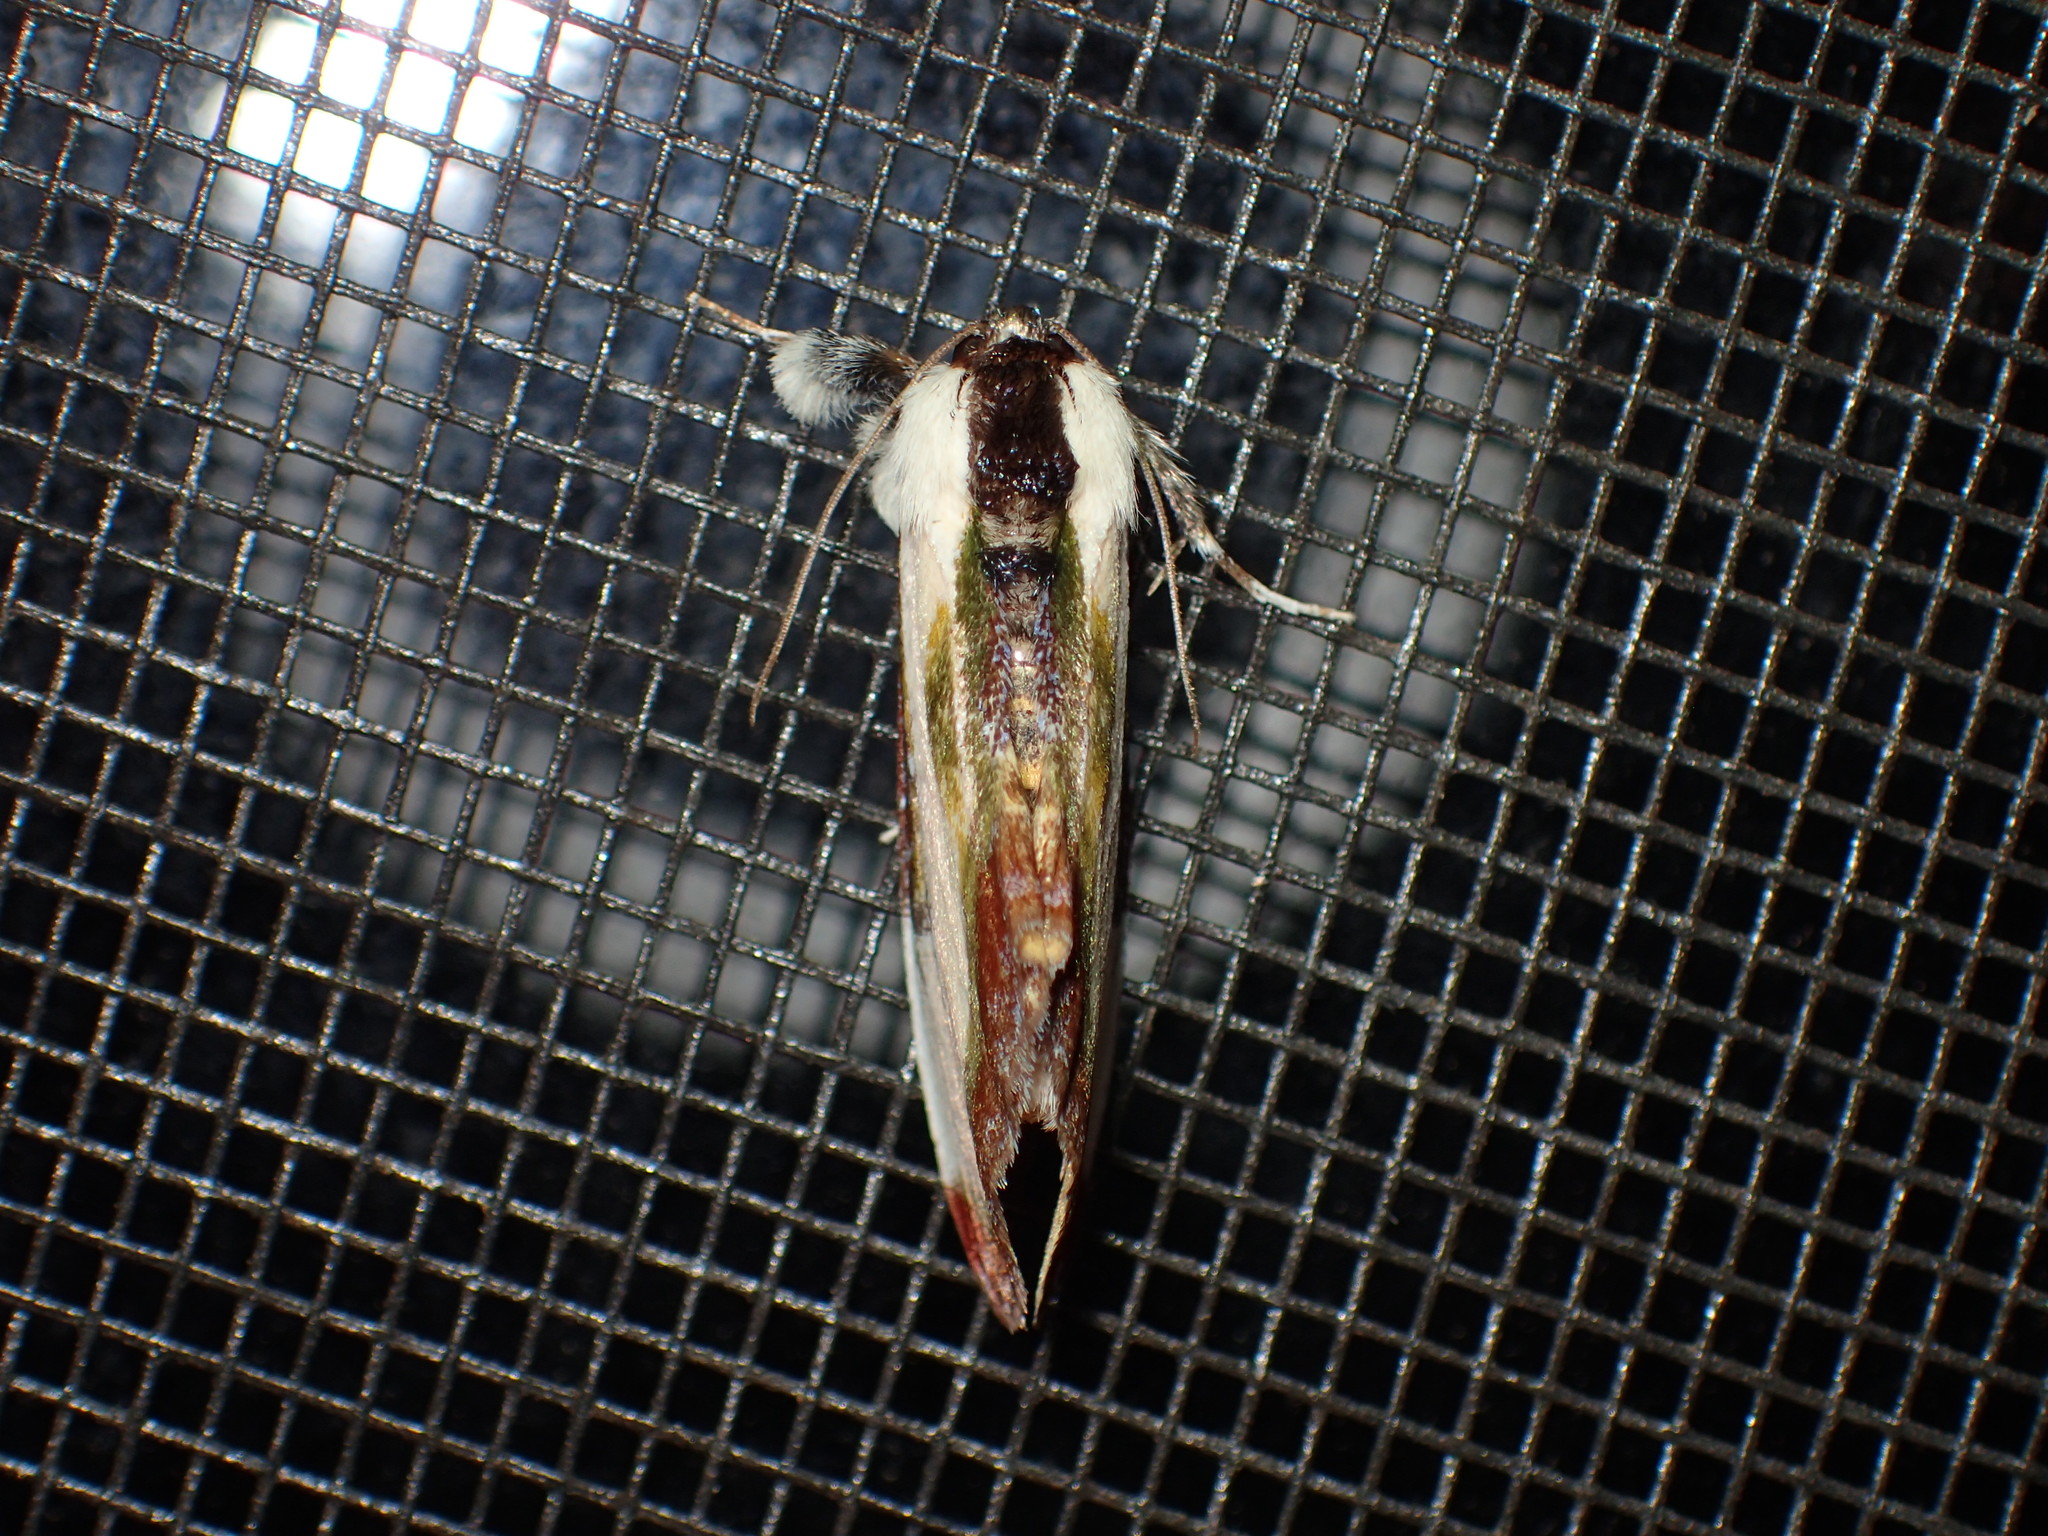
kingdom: Animalia
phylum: Arthropoda
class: Insecta
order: Lepidoptera
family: Noctuidae
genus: Eudryas
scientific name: Eudryas grata
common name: Beautiful wood-nymph
